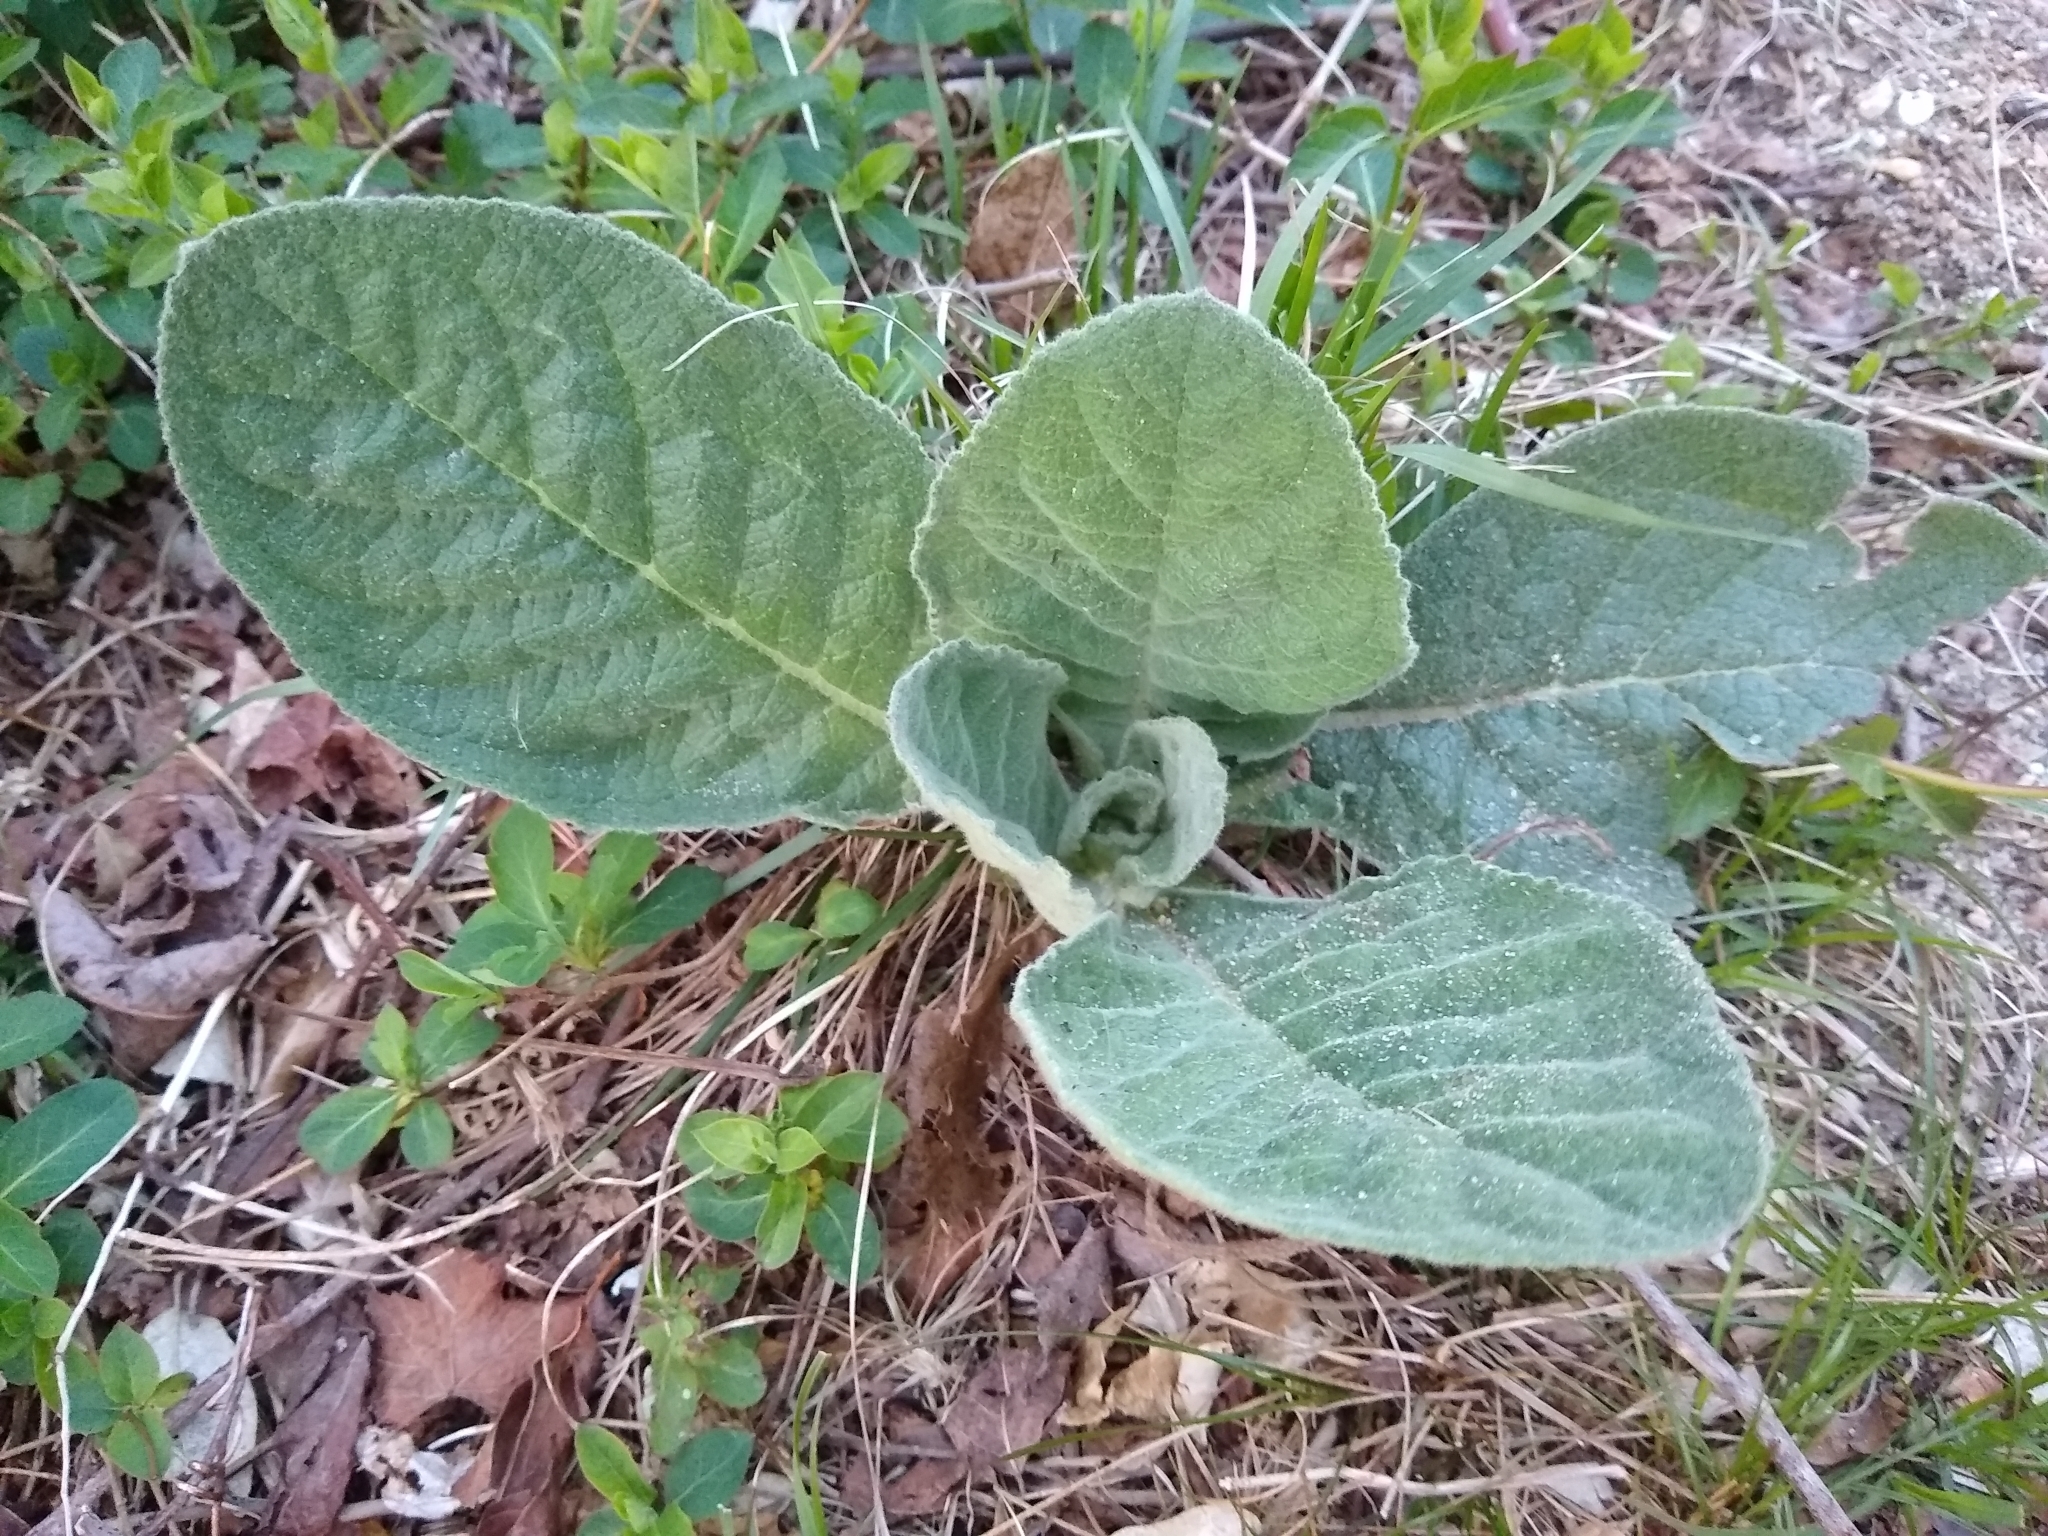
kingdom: Plantae
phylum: Tracheophyta
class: Magnoliopsida
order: Lamiales
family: Scrophulariaceae
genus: Verbascum
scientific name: Verbascum thapsus
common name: Common mullein
